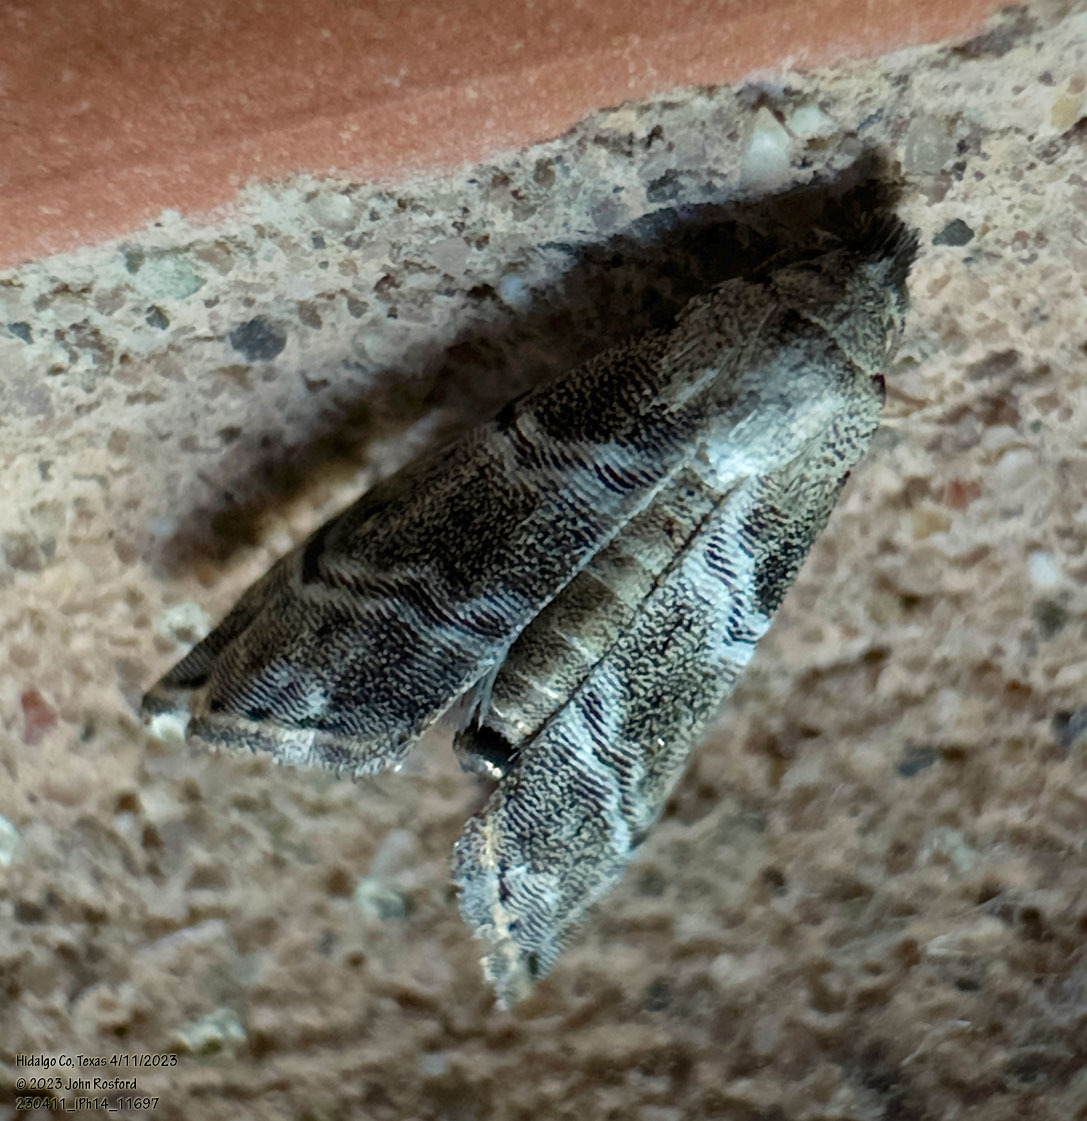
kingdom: Animalia
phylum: Arthropoda
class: Insecta
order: Lepidoptera
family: Noctuidae
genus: Abablemma
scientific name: Abablemma bilineata
